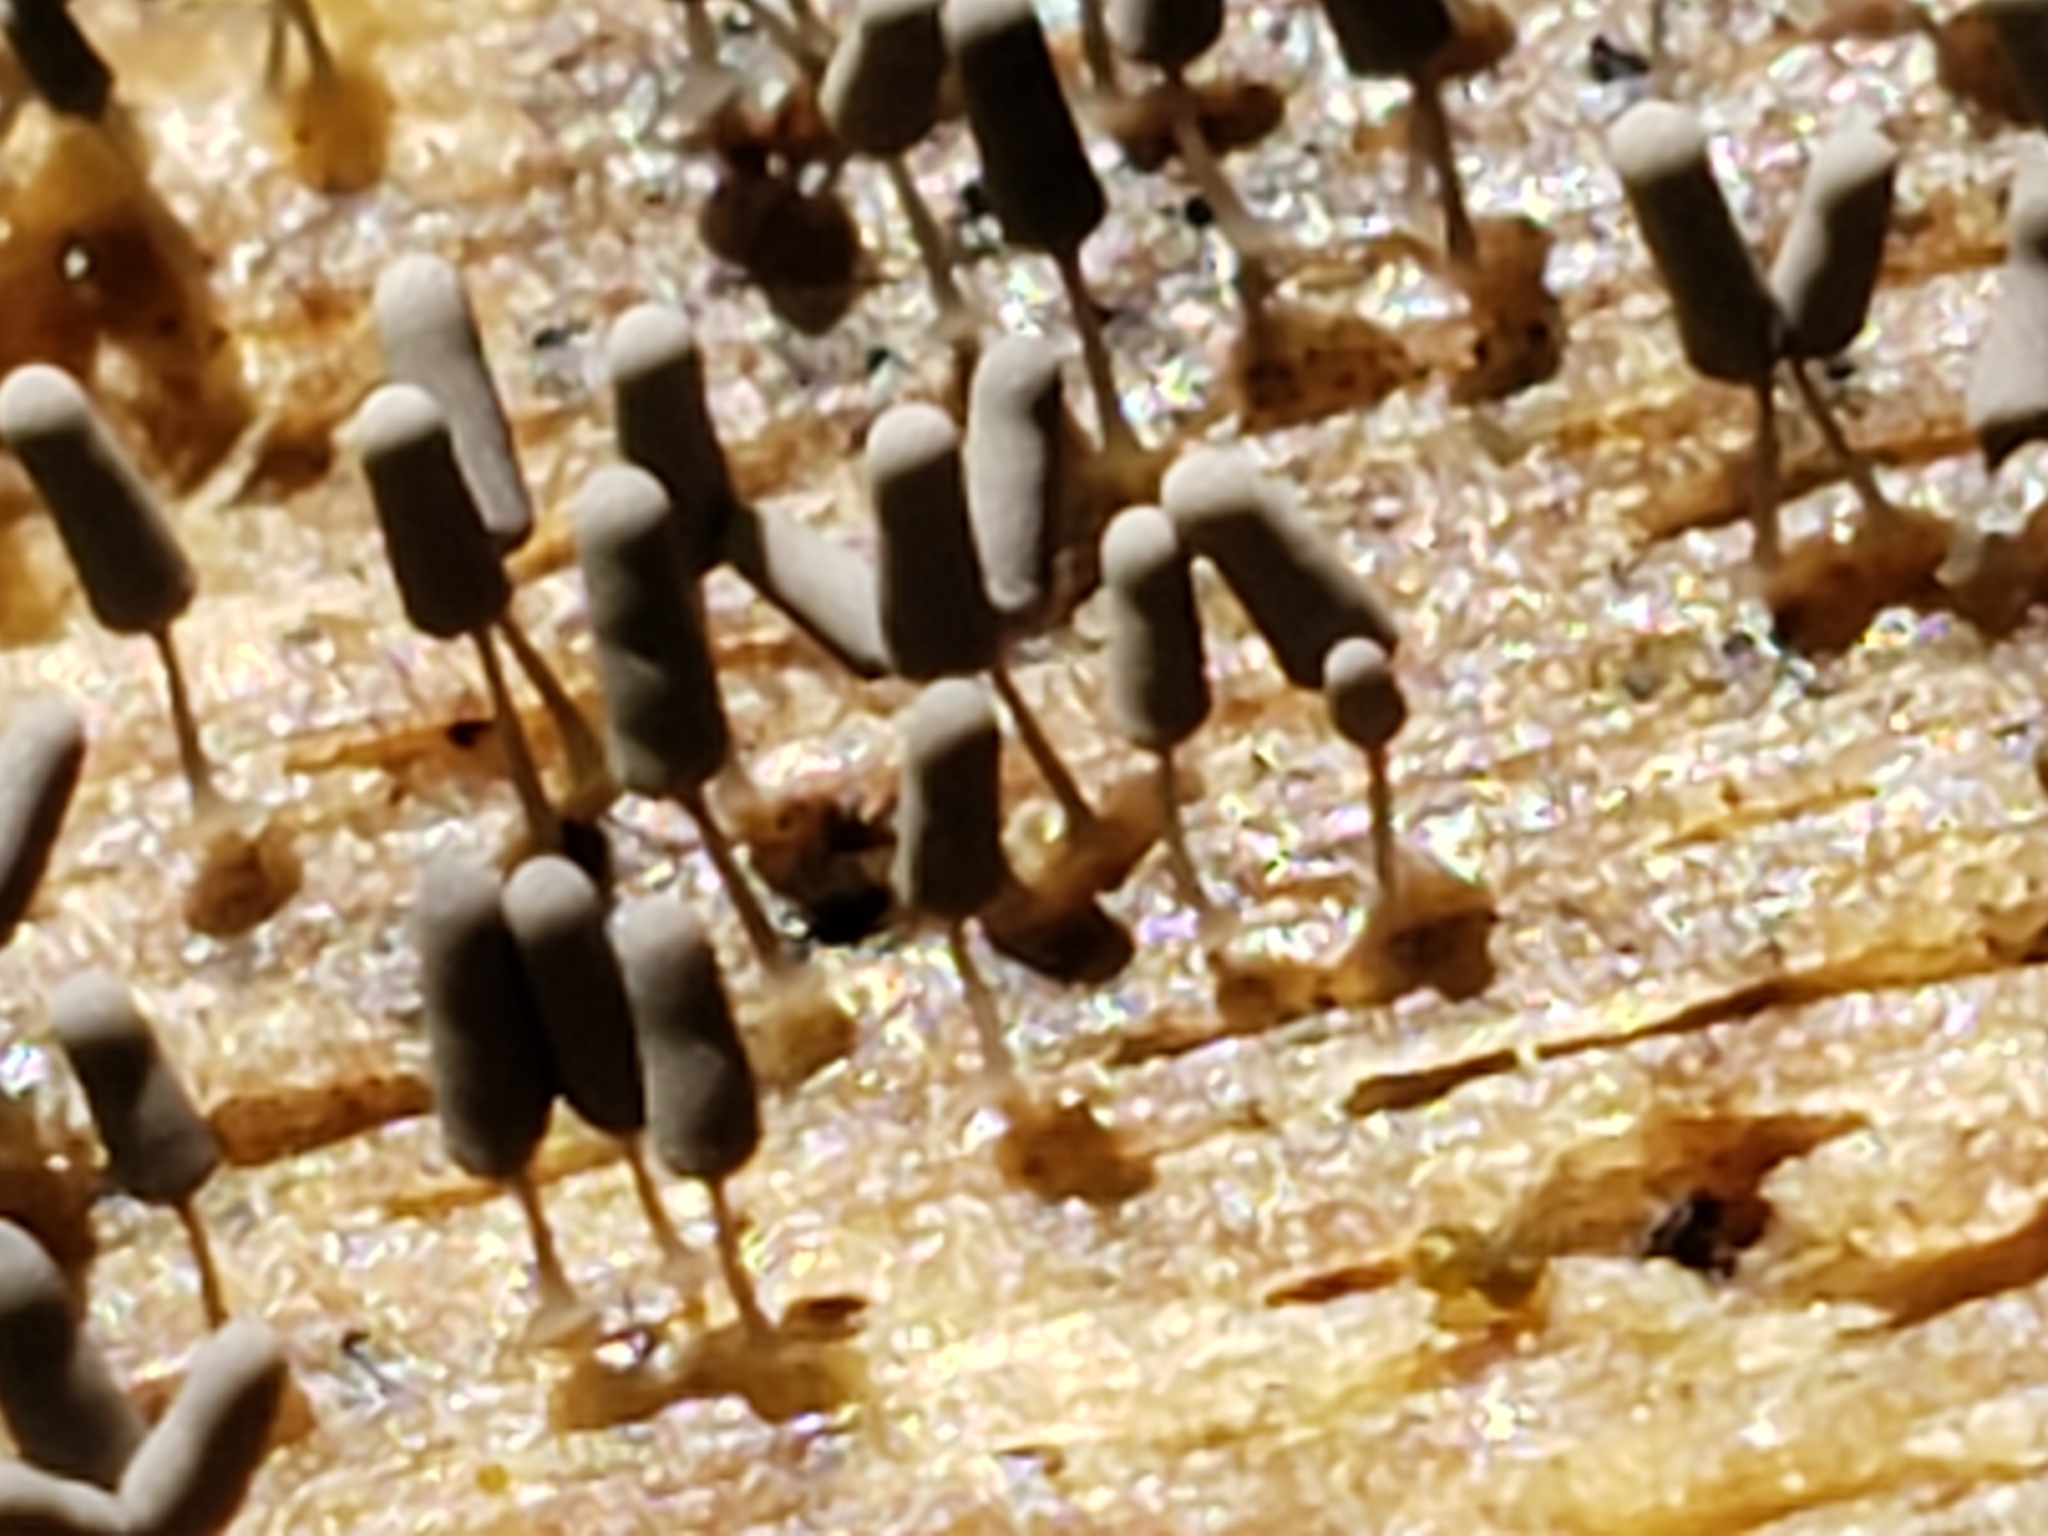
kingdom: Protozoa
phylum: Mycetozoa
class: Myxomycetes
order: Trichiales
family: Arcyriaceae
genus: Arcyria
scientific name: Arcyria cinerea
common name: White carnival candy slime mold
